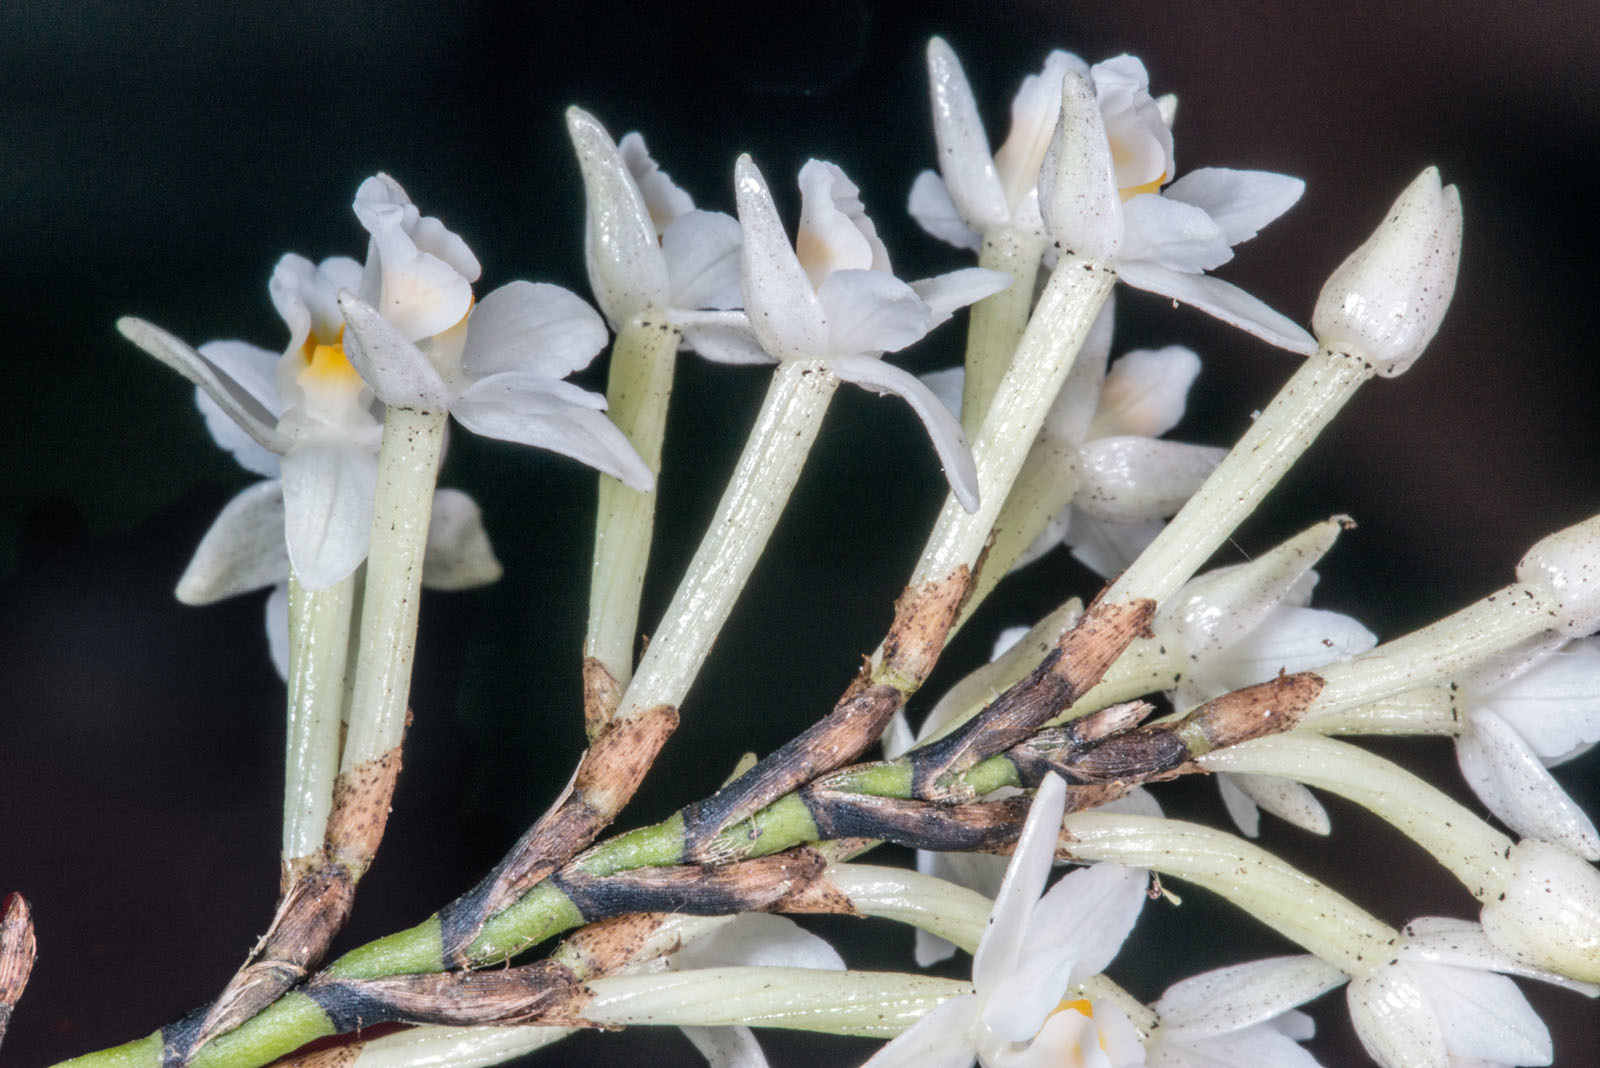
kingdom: Plantae
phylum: Tracheophyta
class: Liliopsida
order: Asparagales
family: Orchidaceae
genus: Earina
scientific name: Earina autumnalis
